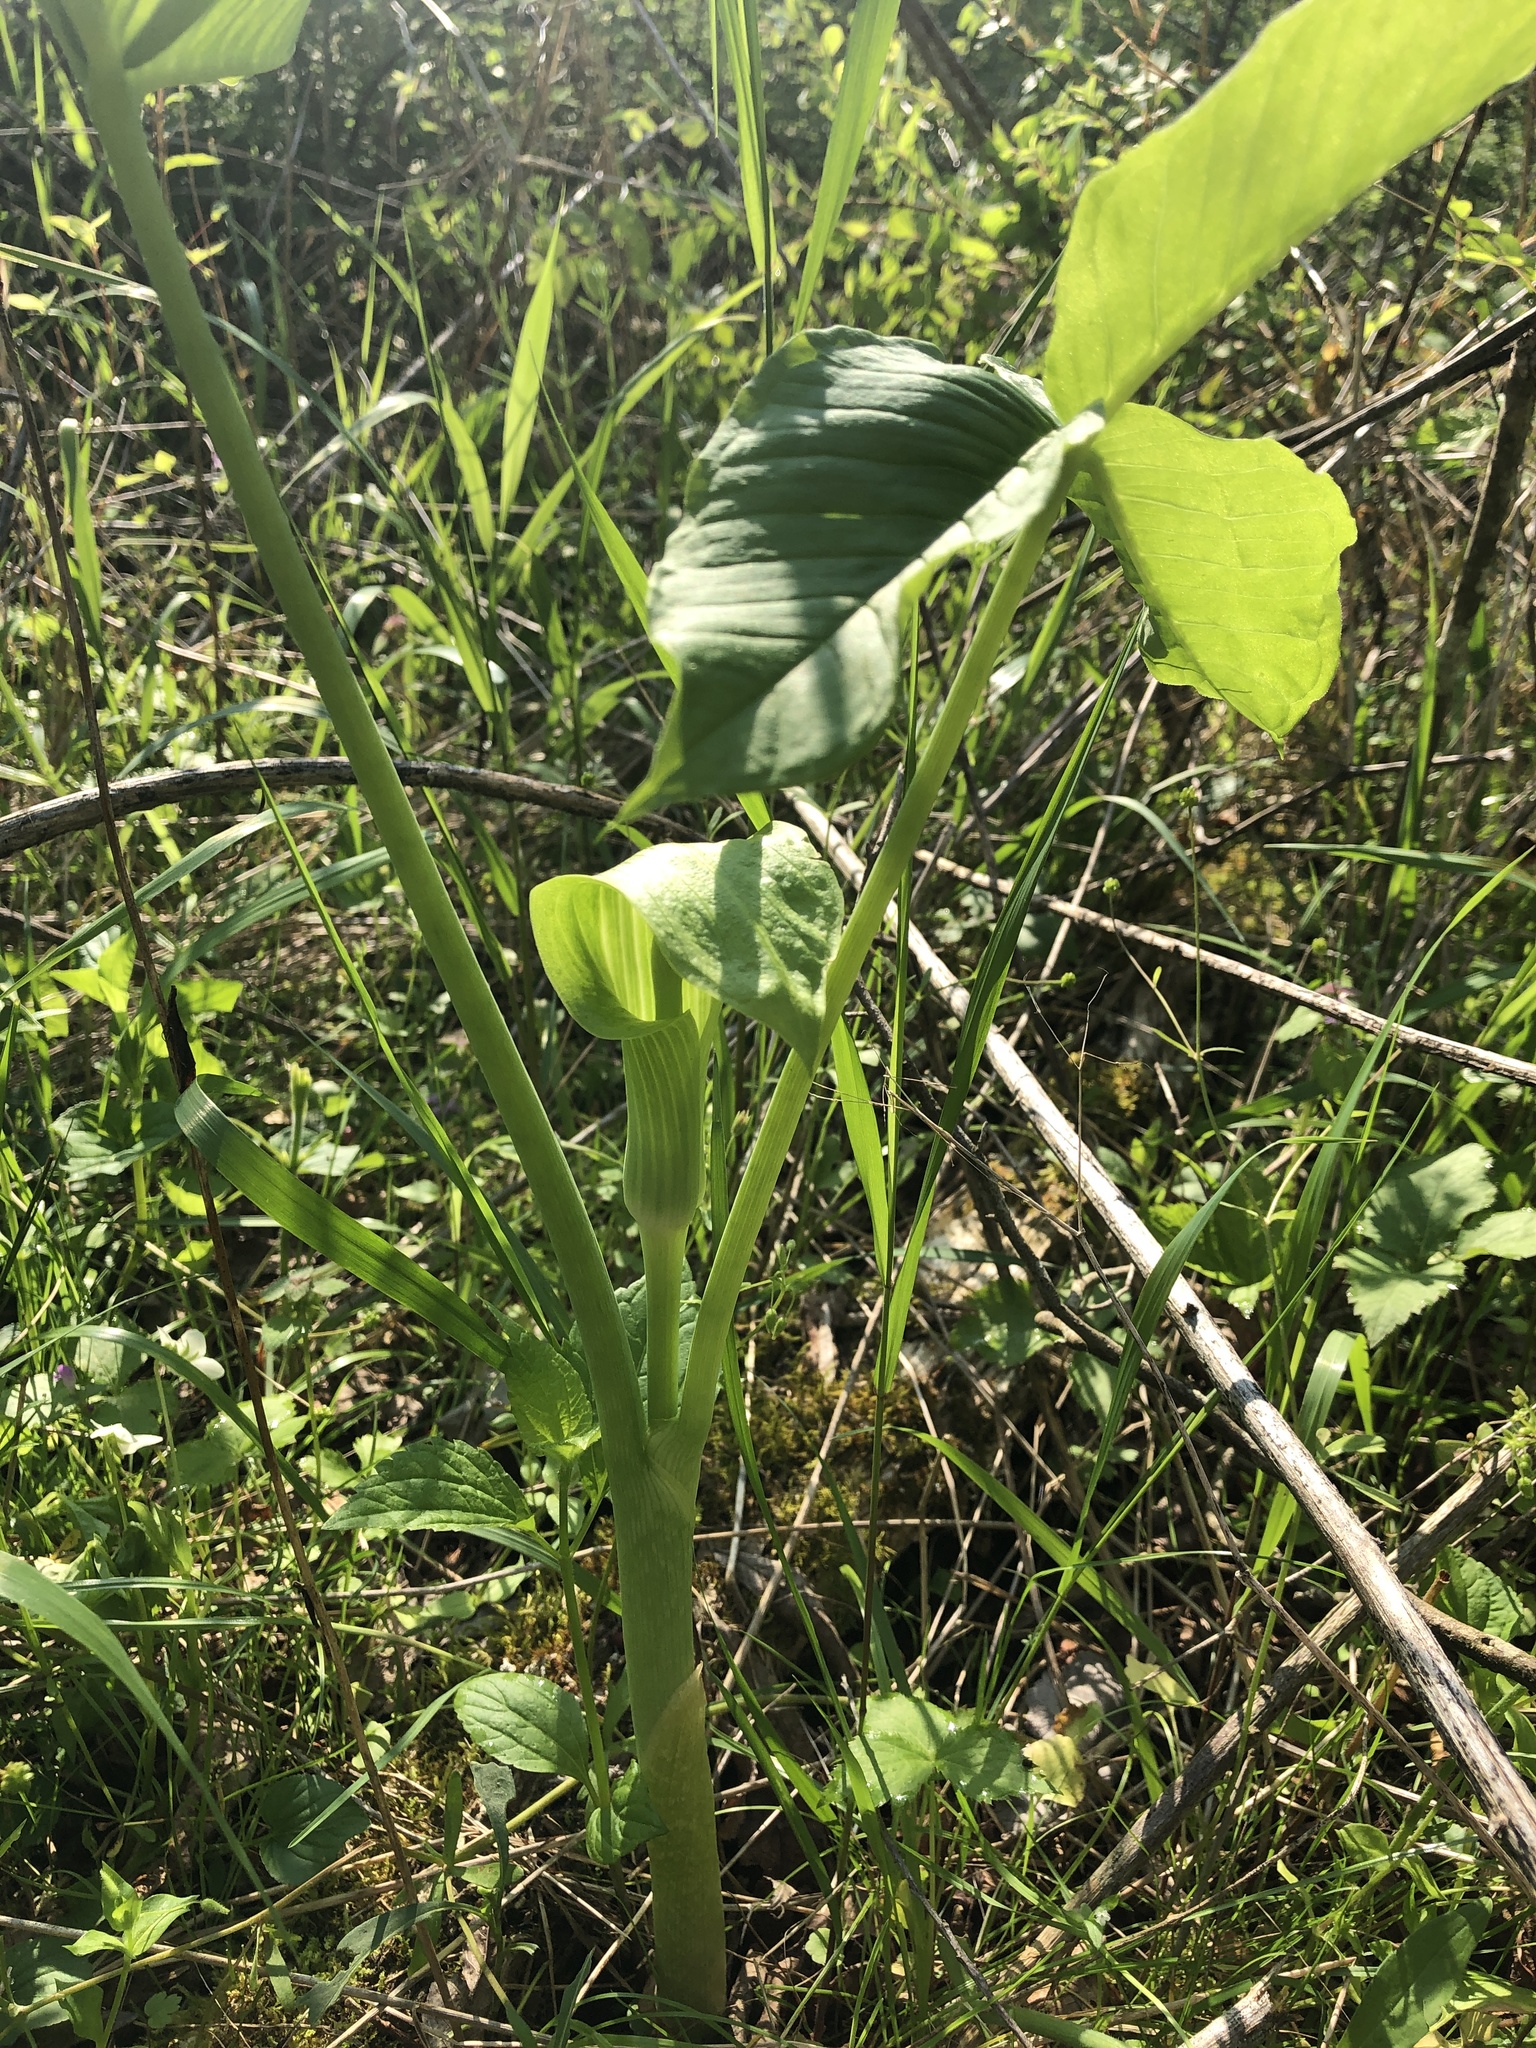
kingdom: Plantae
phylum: Tracheophyta
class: Liliopsida
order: Alismatales
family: Araceae
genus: Arisaema
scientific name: Arisaema triphyllum
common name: Jack-in-the-pulpit
